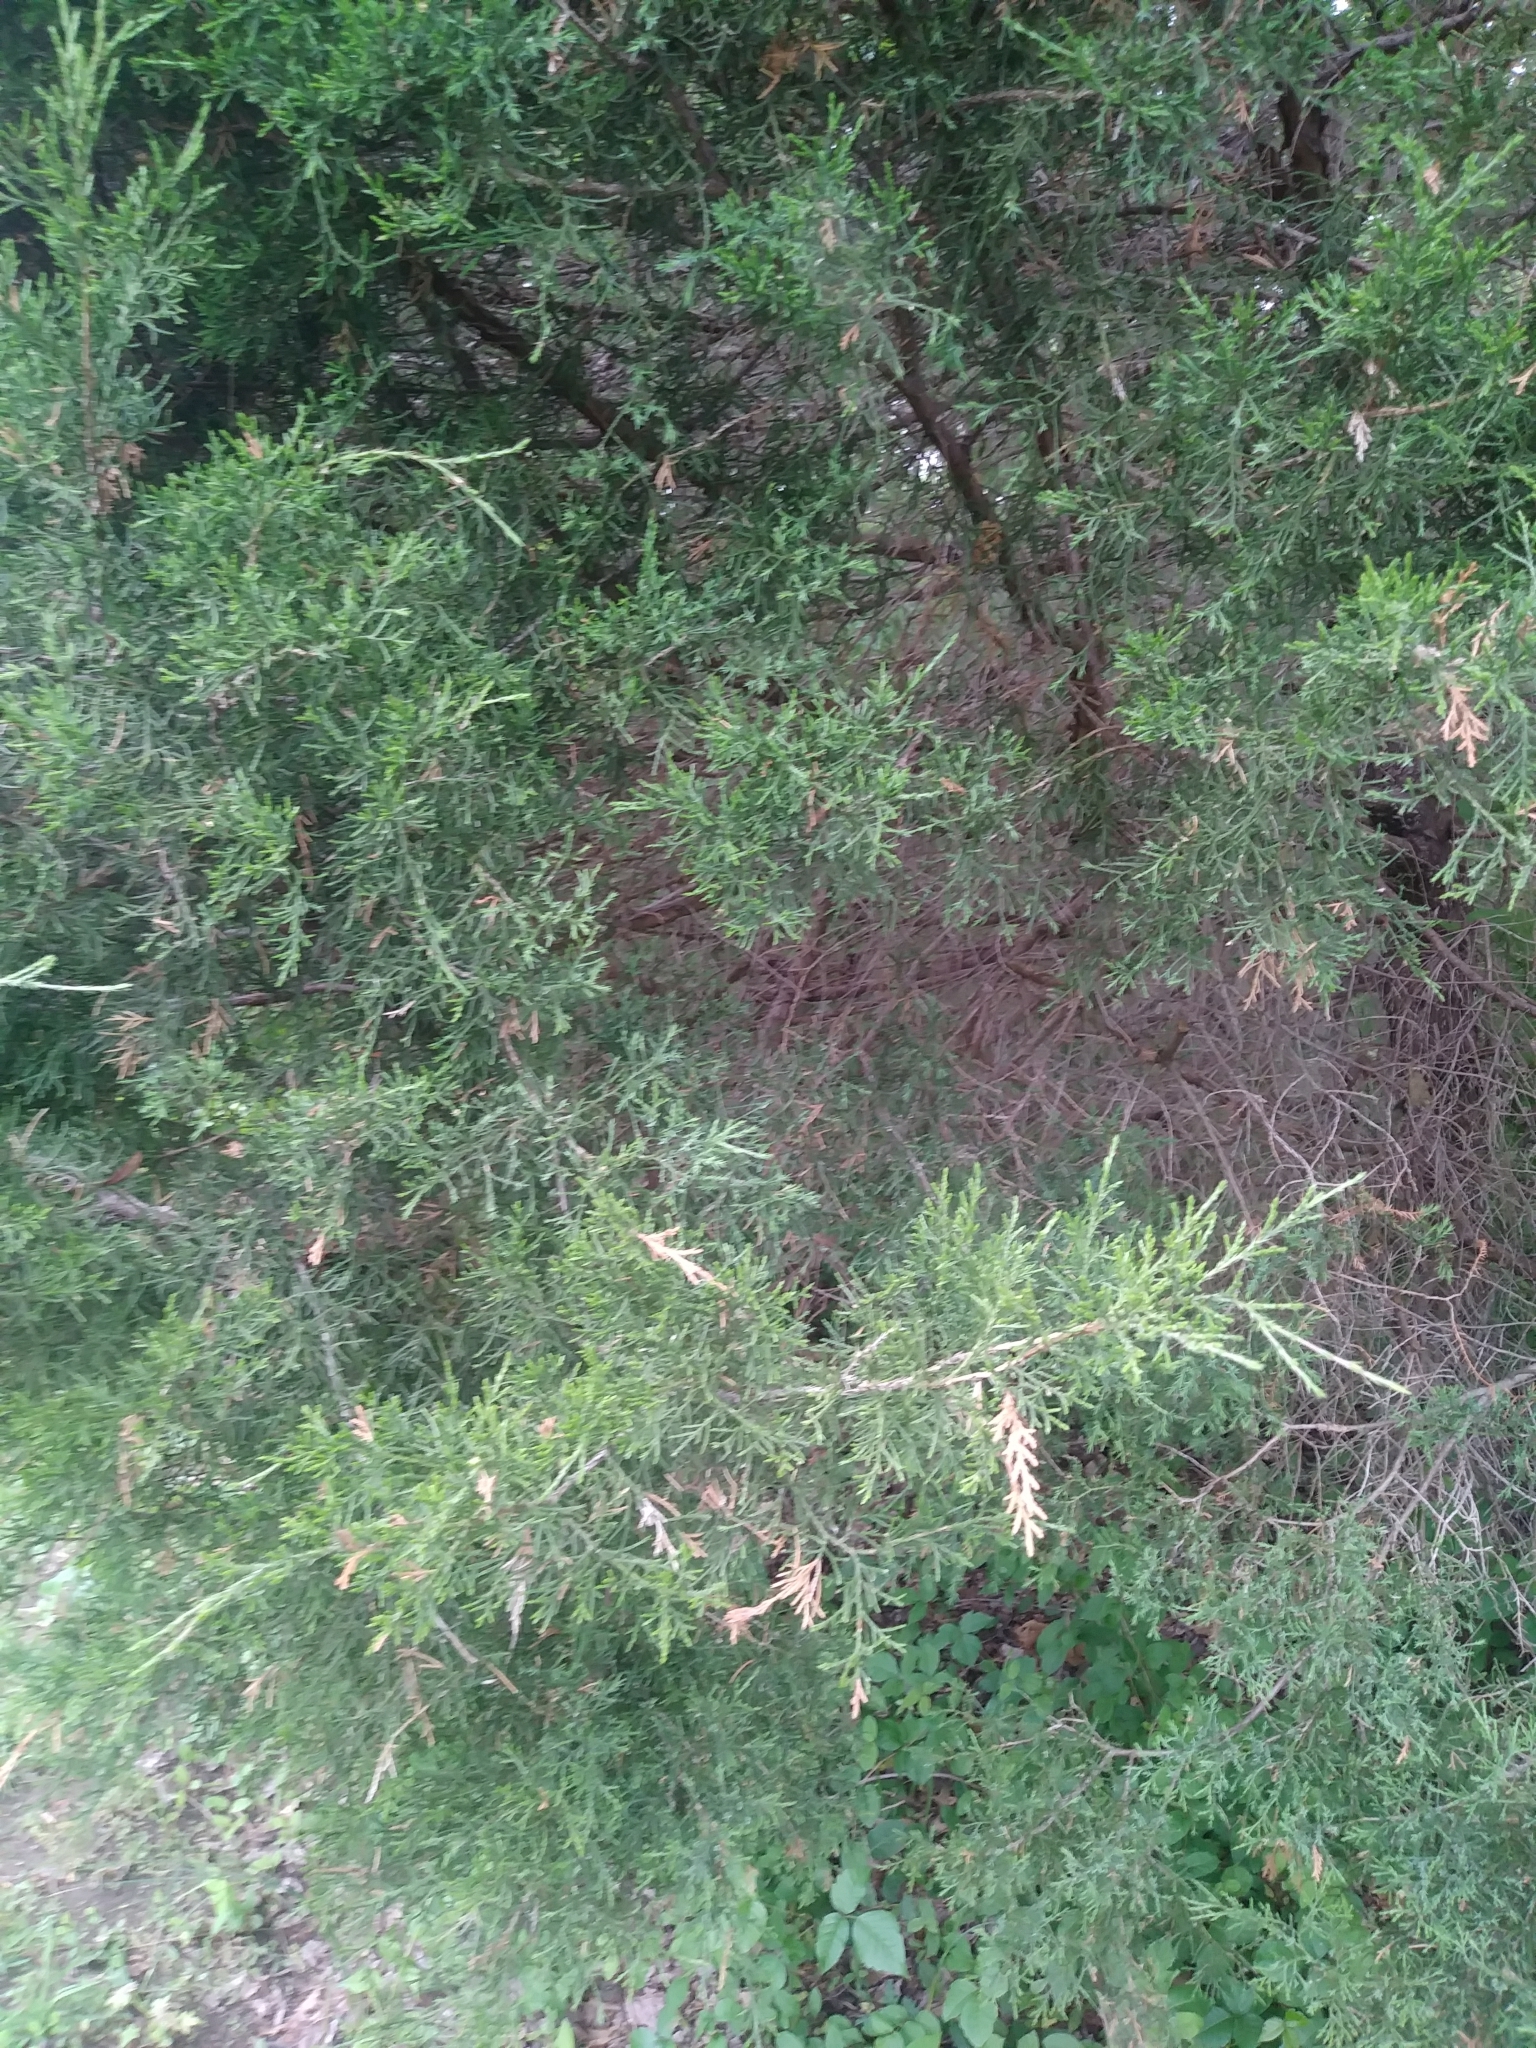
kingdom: Plantae
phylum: Tracheophyta
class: Pinopsida
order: Pinales
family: Cupressaceae
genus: Juniperus
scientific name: Juniperus virginiana
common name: Red juniper
